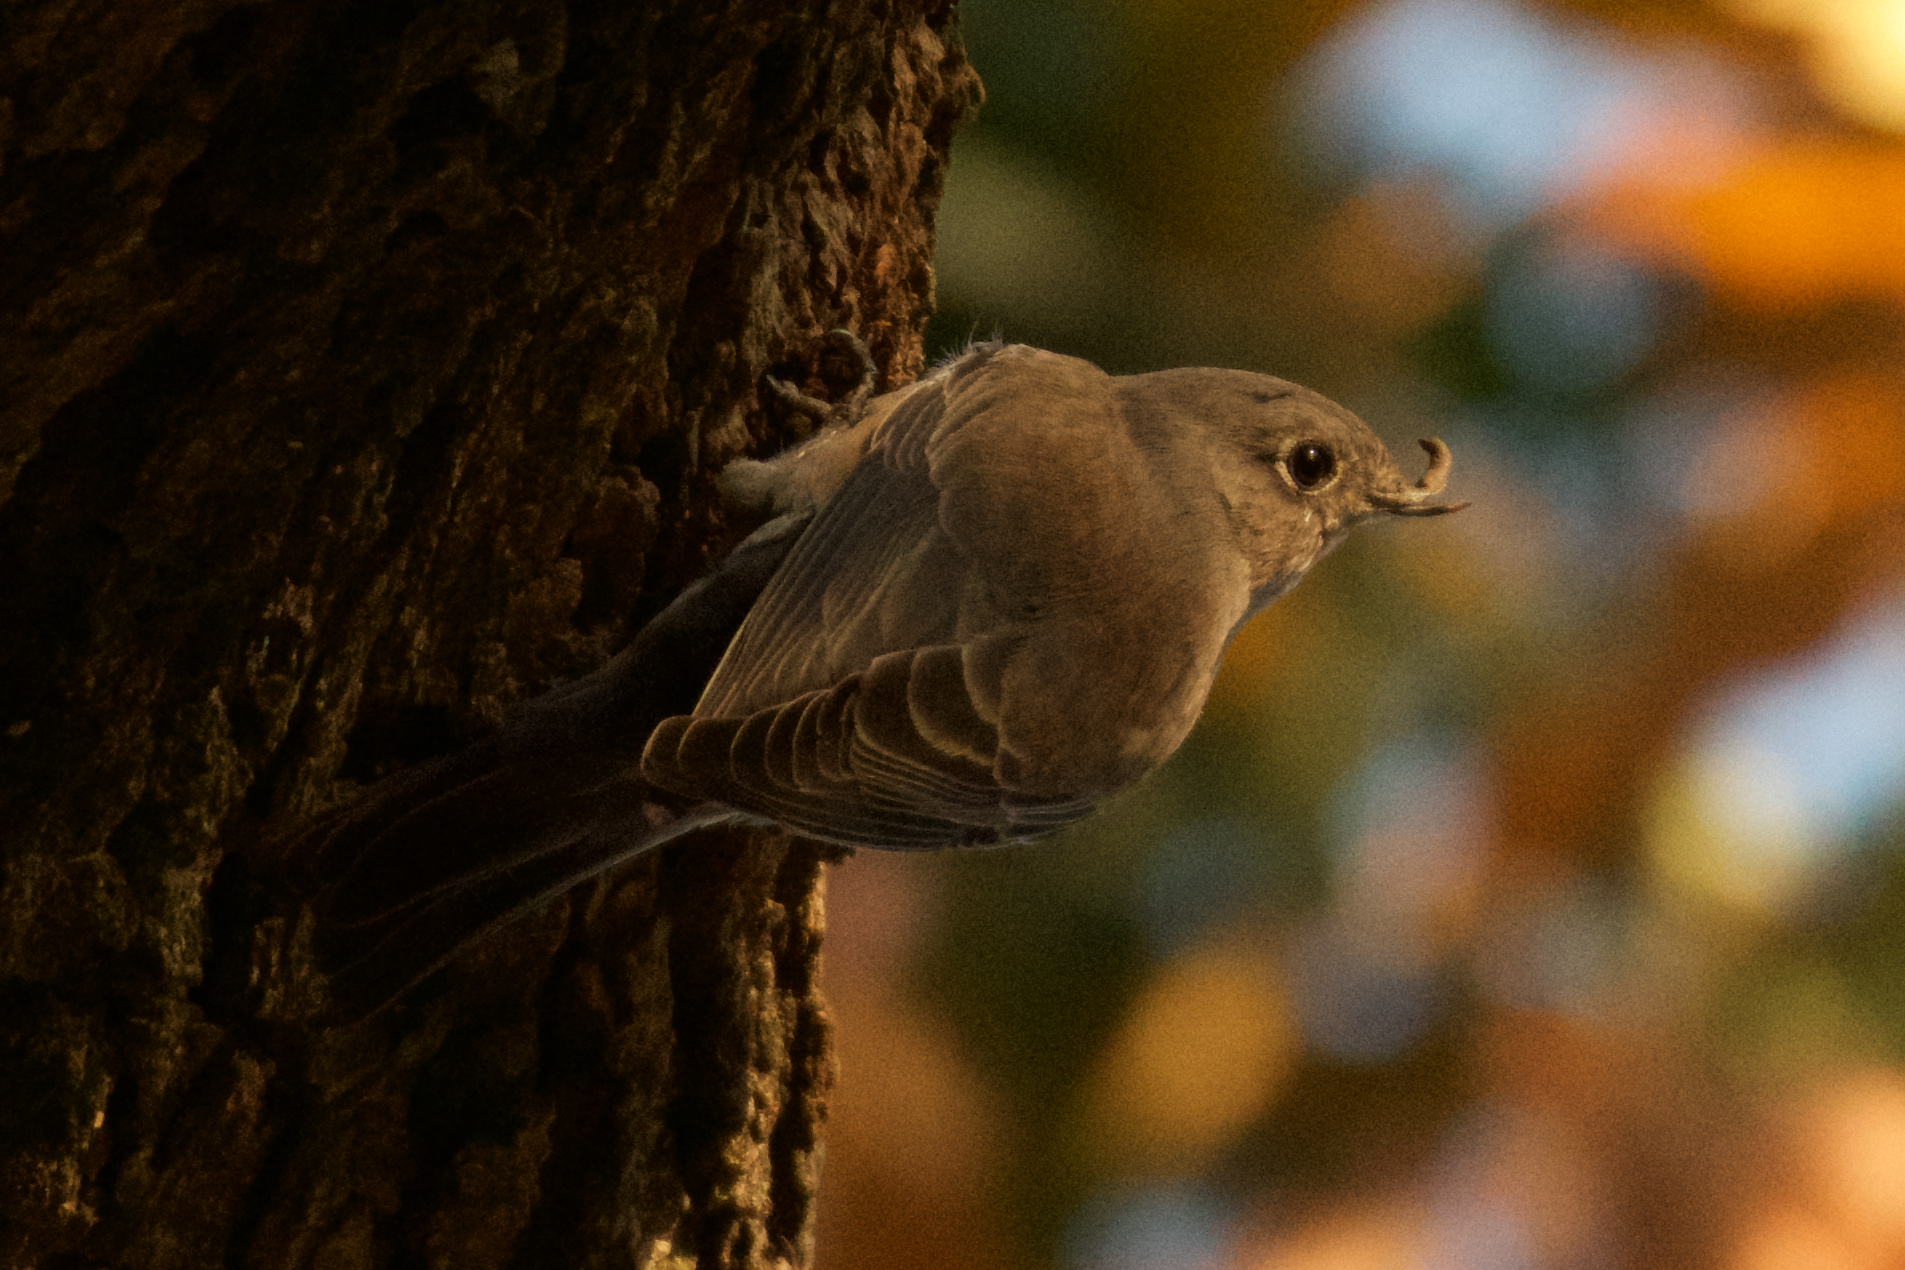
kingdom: Animalia
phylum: Chordata
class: Aves
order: Passeriformes
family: Turdidae
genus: Sialia
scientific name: Sialia mexicana
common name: Western bluebird
